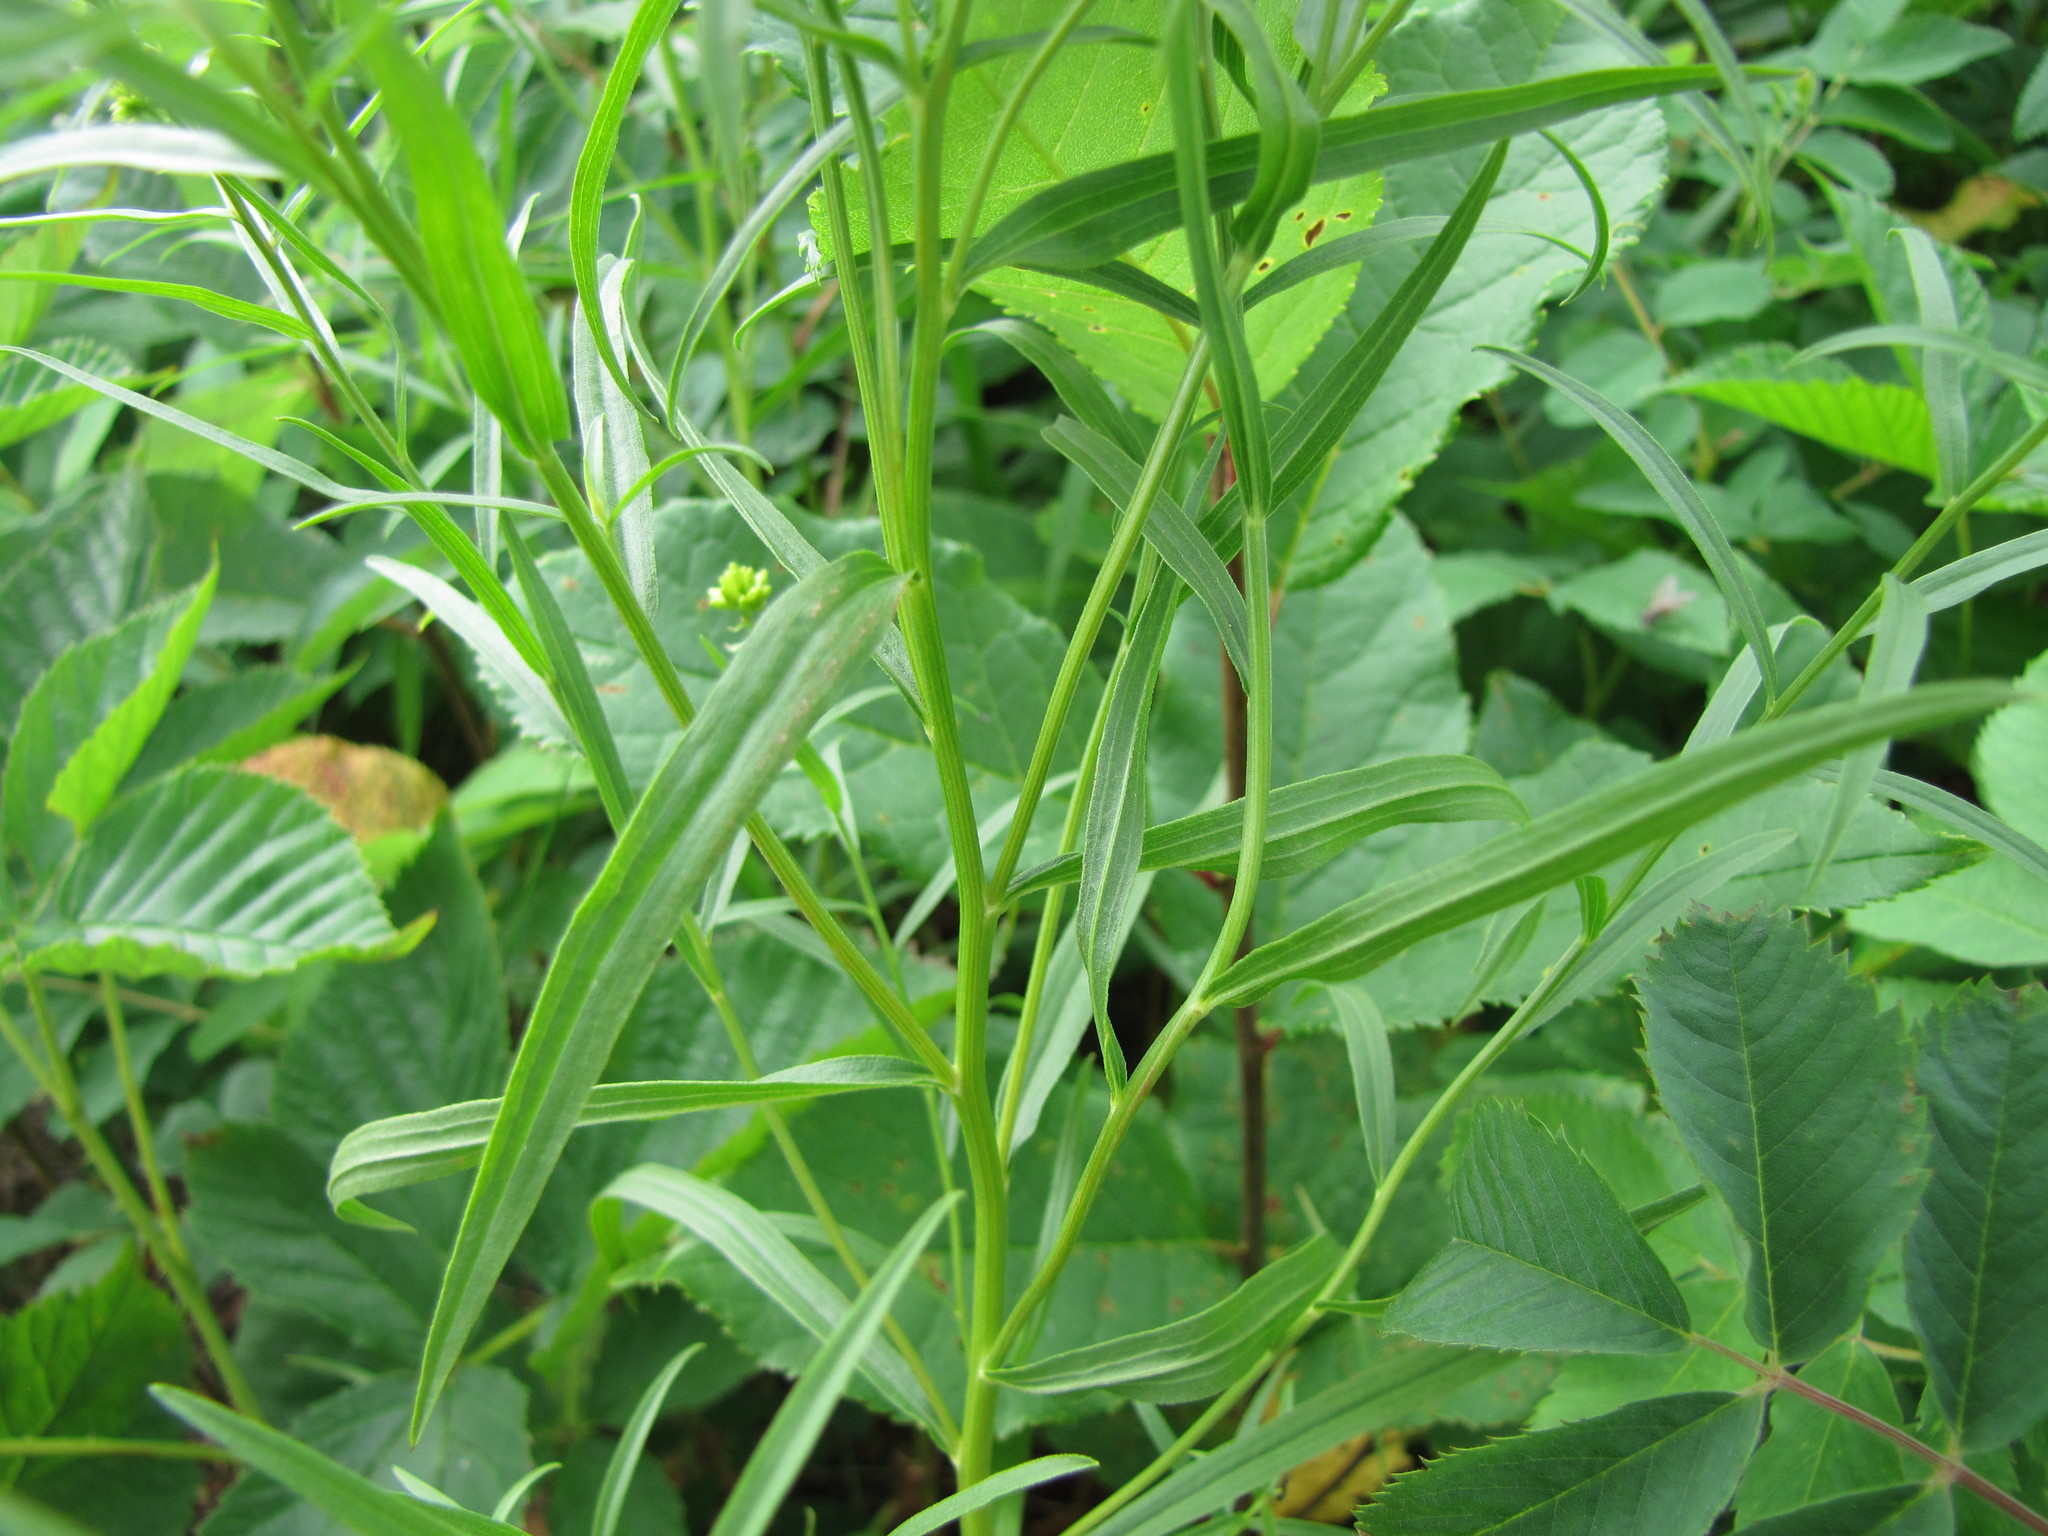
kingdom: Plantae
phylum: Tracheophyta
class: Magnoliopsida
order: Asterales
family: Asteraceae
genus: Euthamia
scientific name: Euthamia graminifolia
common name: Common goldentop
